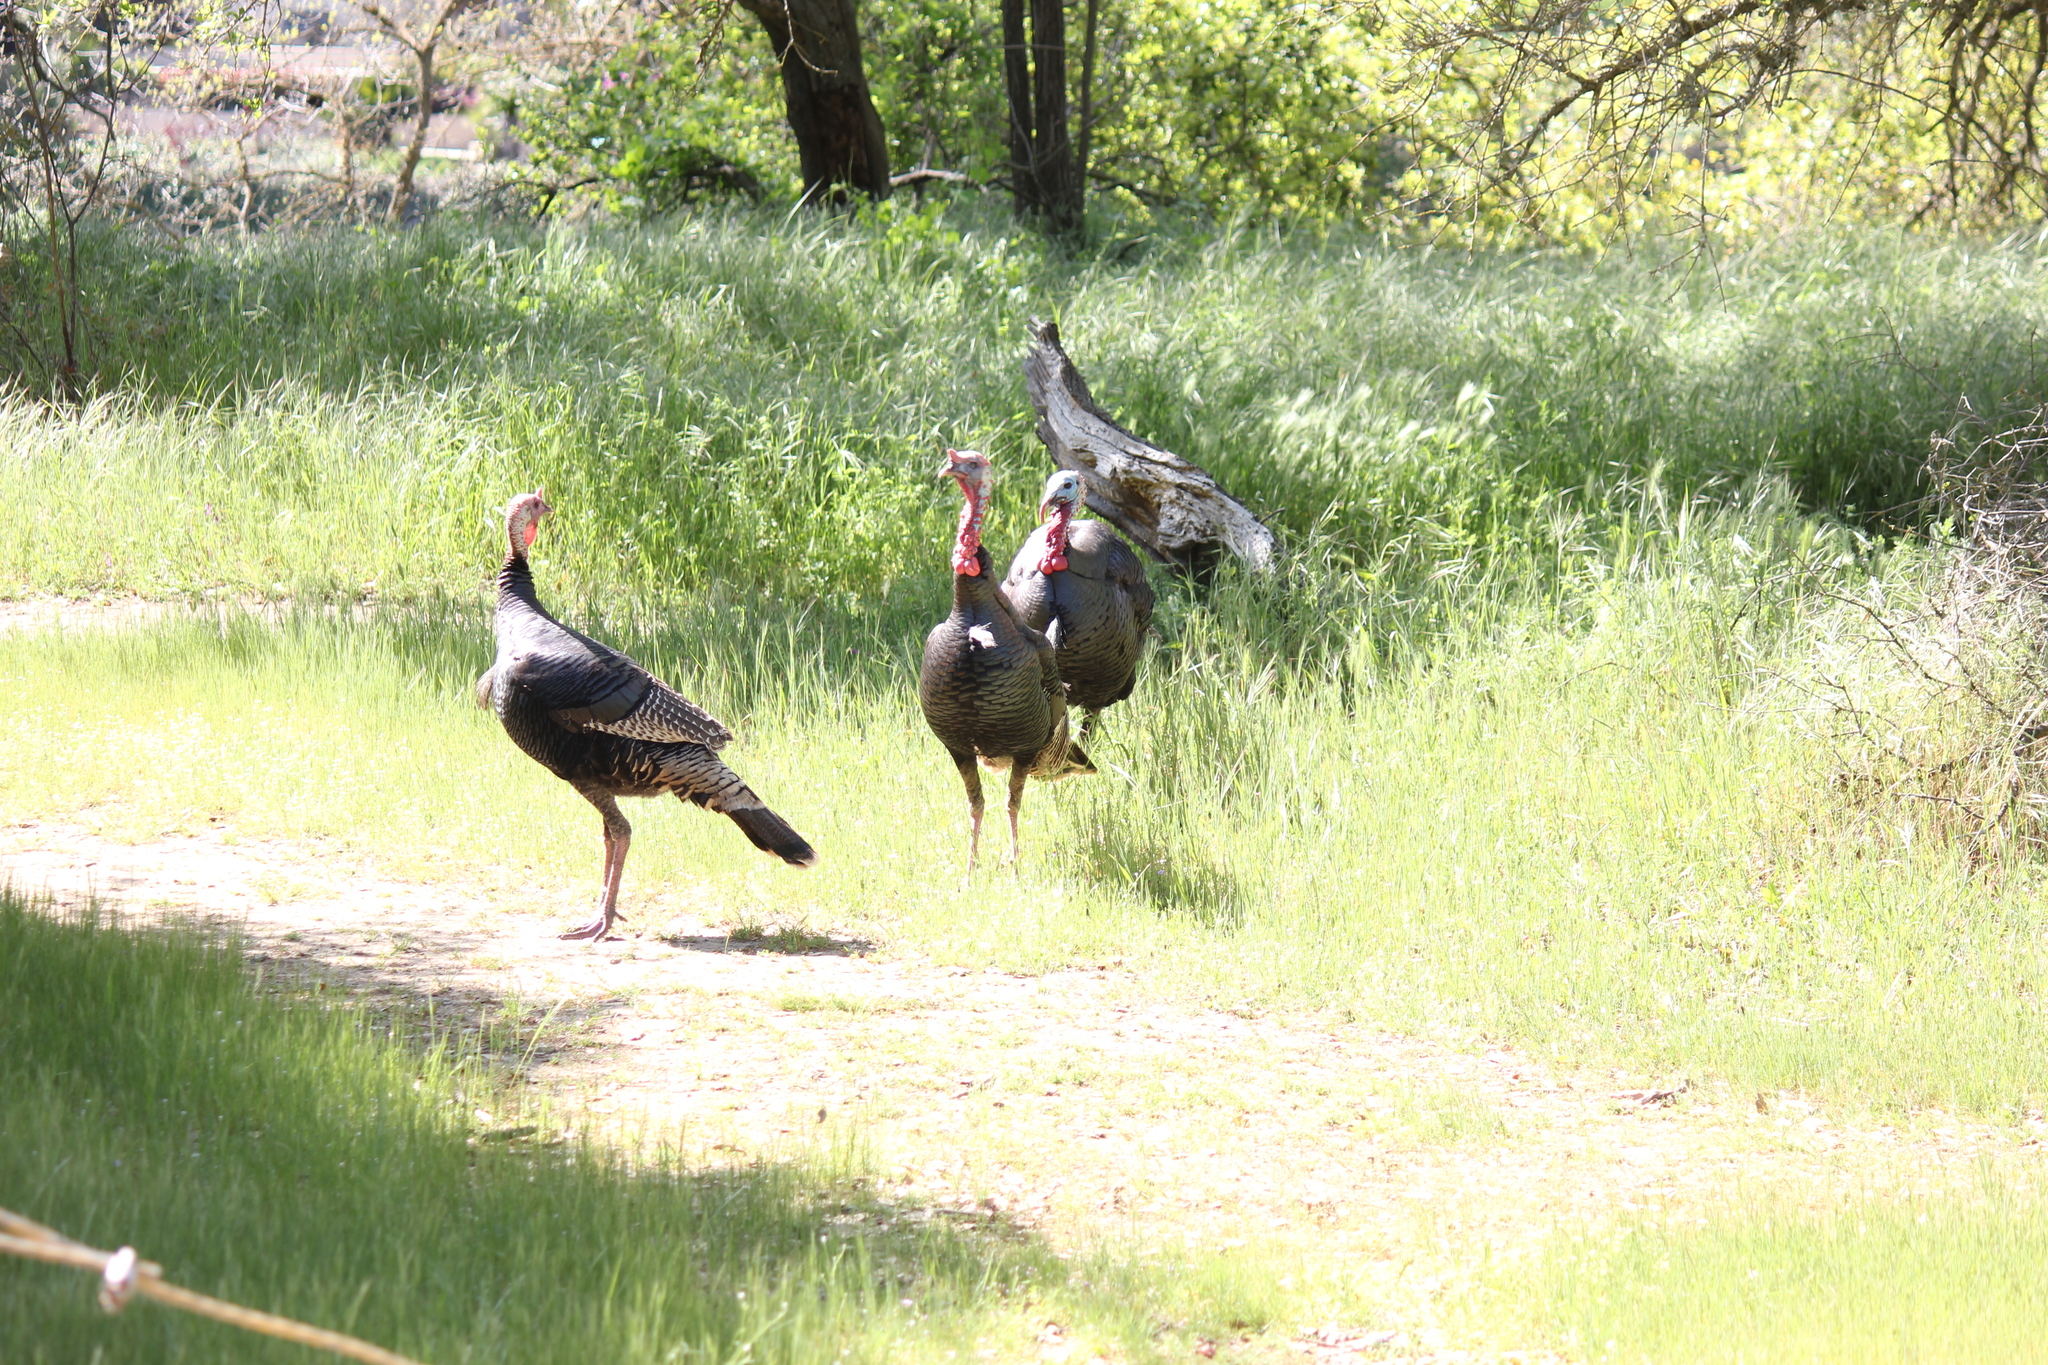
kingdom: Animalia
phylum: Chordata
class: Aves
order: Galliformes
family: Phasianidae
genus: Meleagris
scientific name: Meleagris gallopavo
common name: Wild turkey
